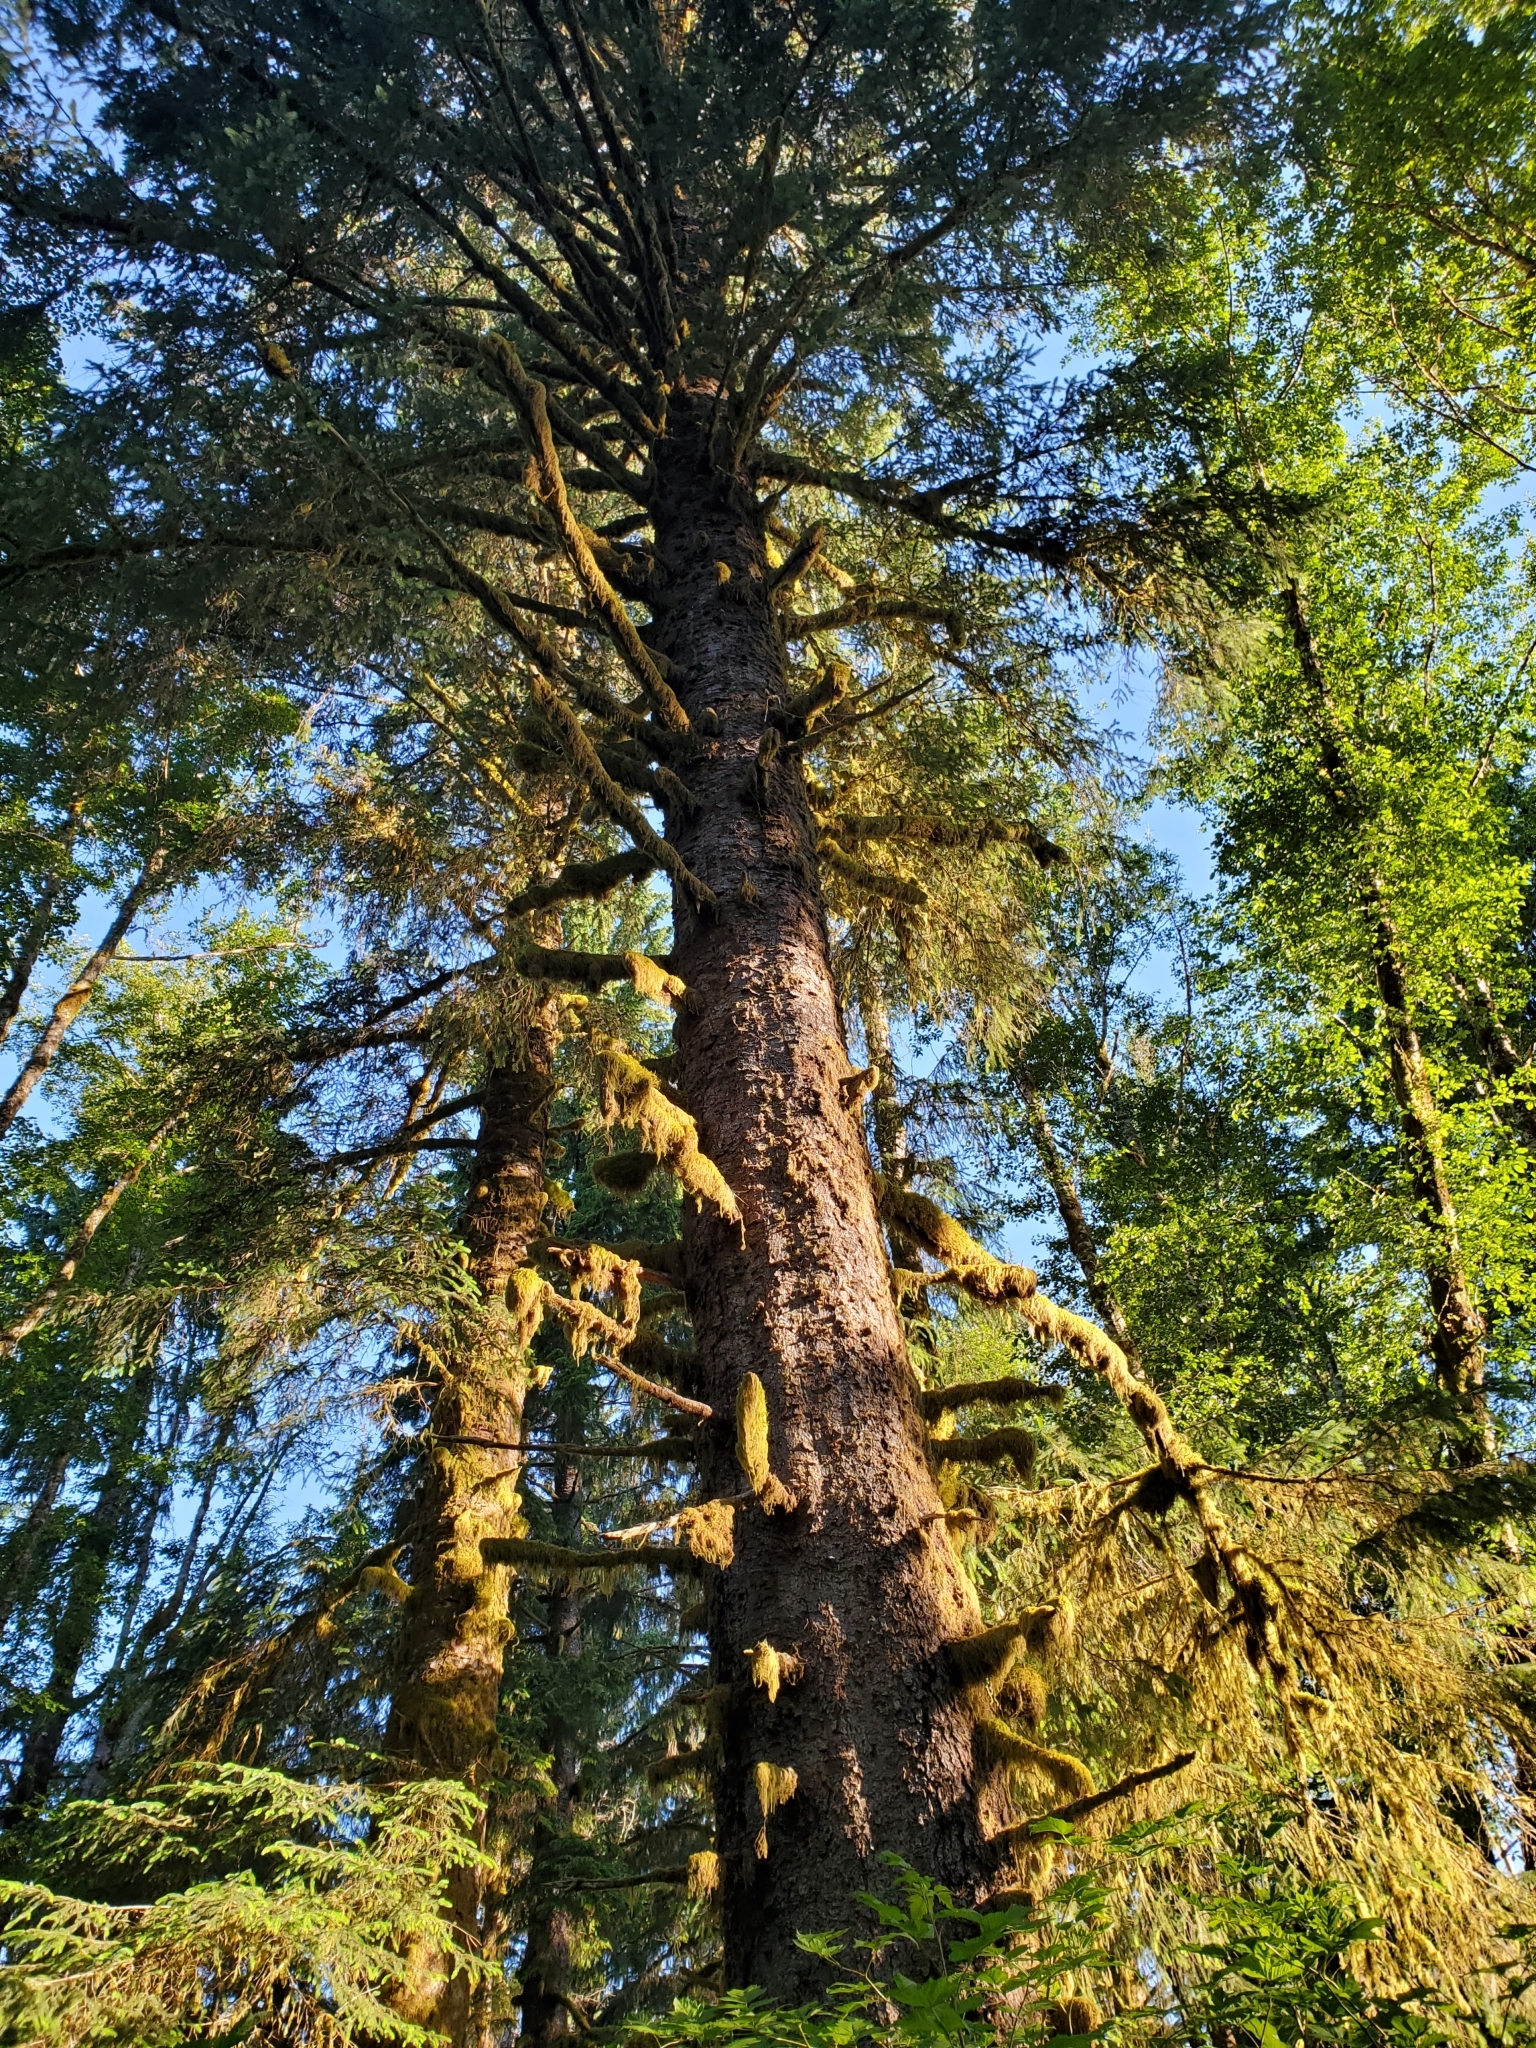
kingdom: Plantae
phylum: Tracheophyta
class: Pinopsida
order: Pinales
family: Pinaceae
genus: Picea
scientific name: Picea sitchensis
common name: Sitka spruce
